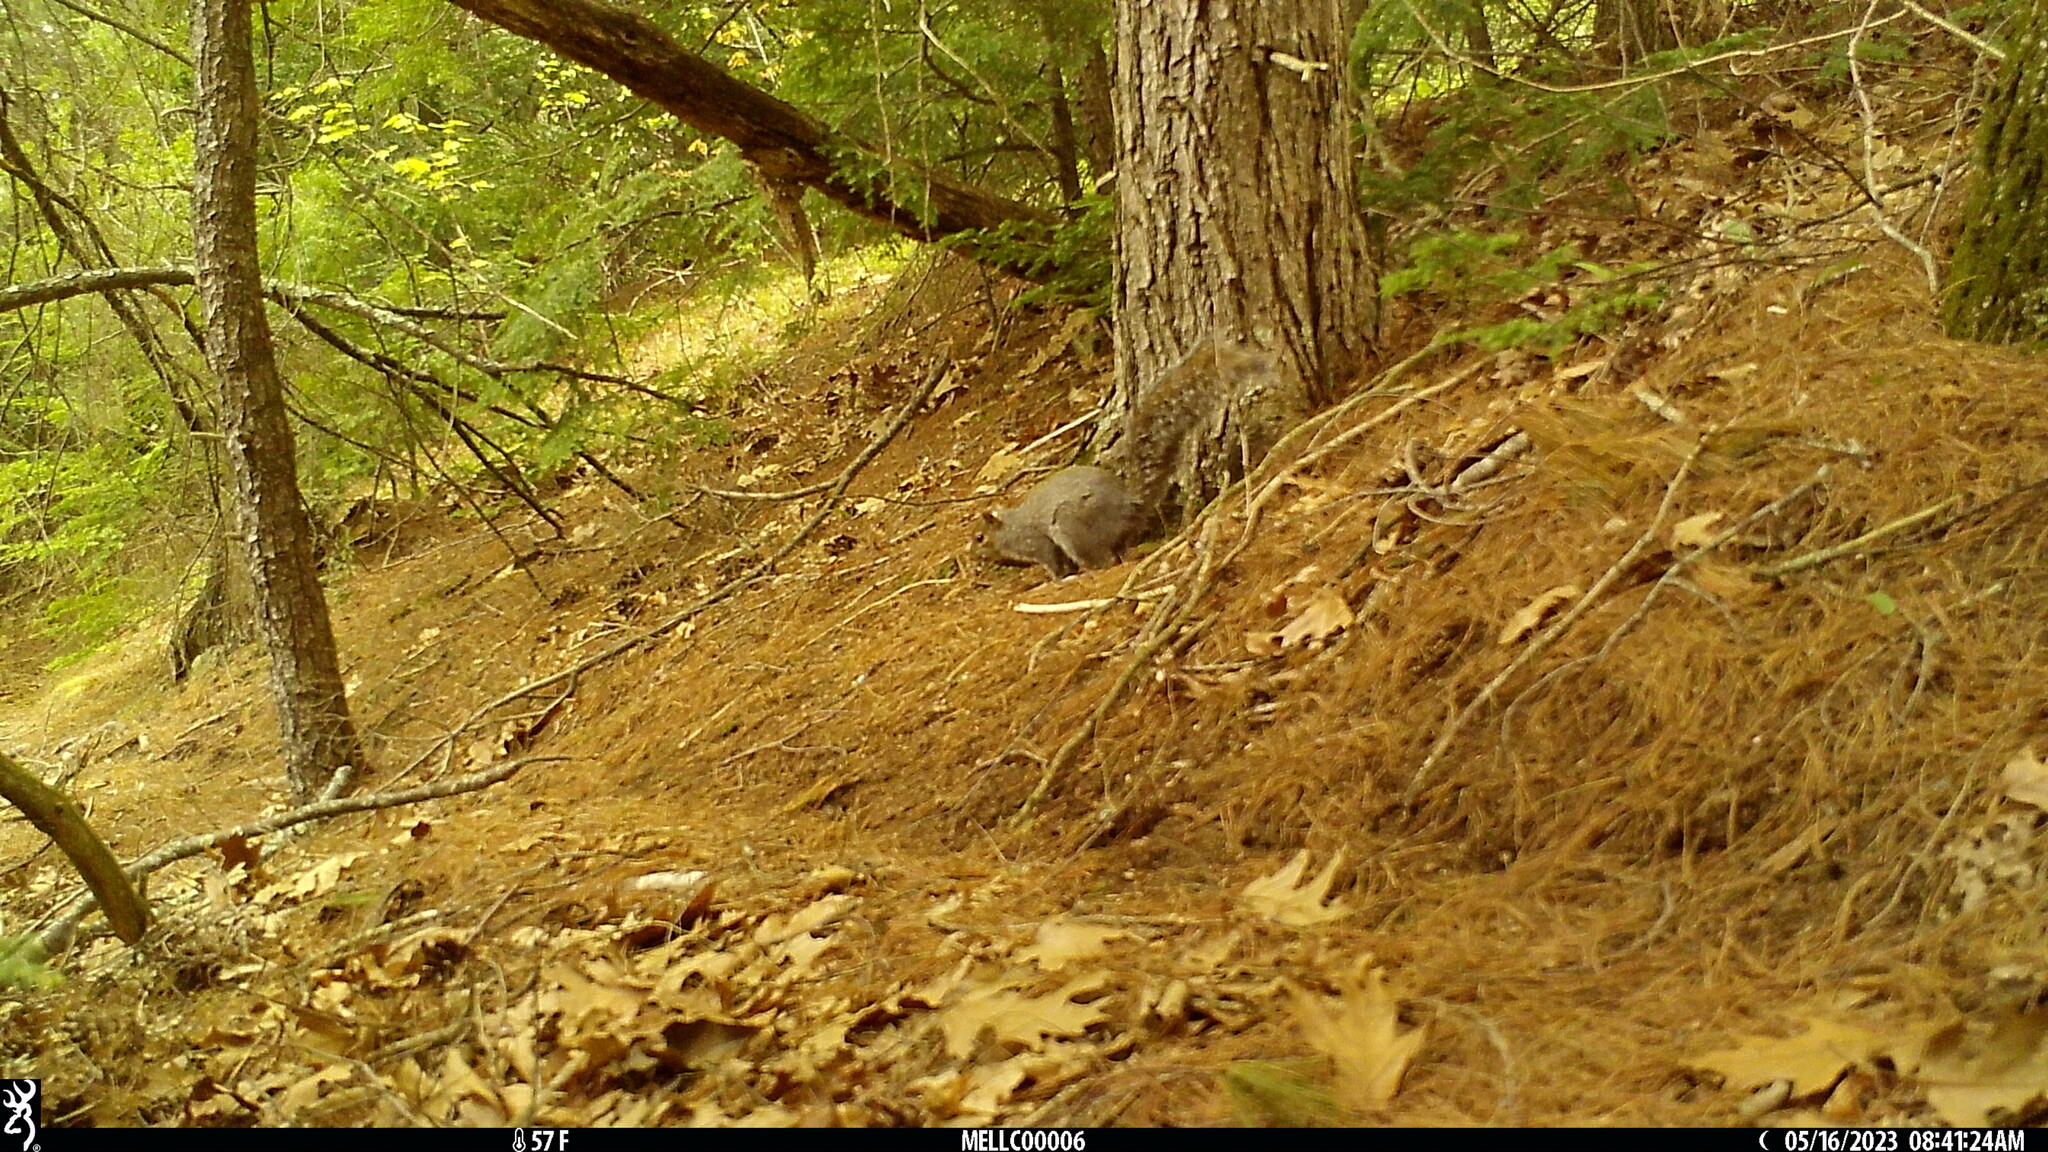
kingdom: Animalia
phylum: Chordata
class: Mammalia
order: Rodentia
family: Sciuridae
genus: Sciurus
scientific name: Sciurus carolinensis
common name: Eastern gray squirrel
